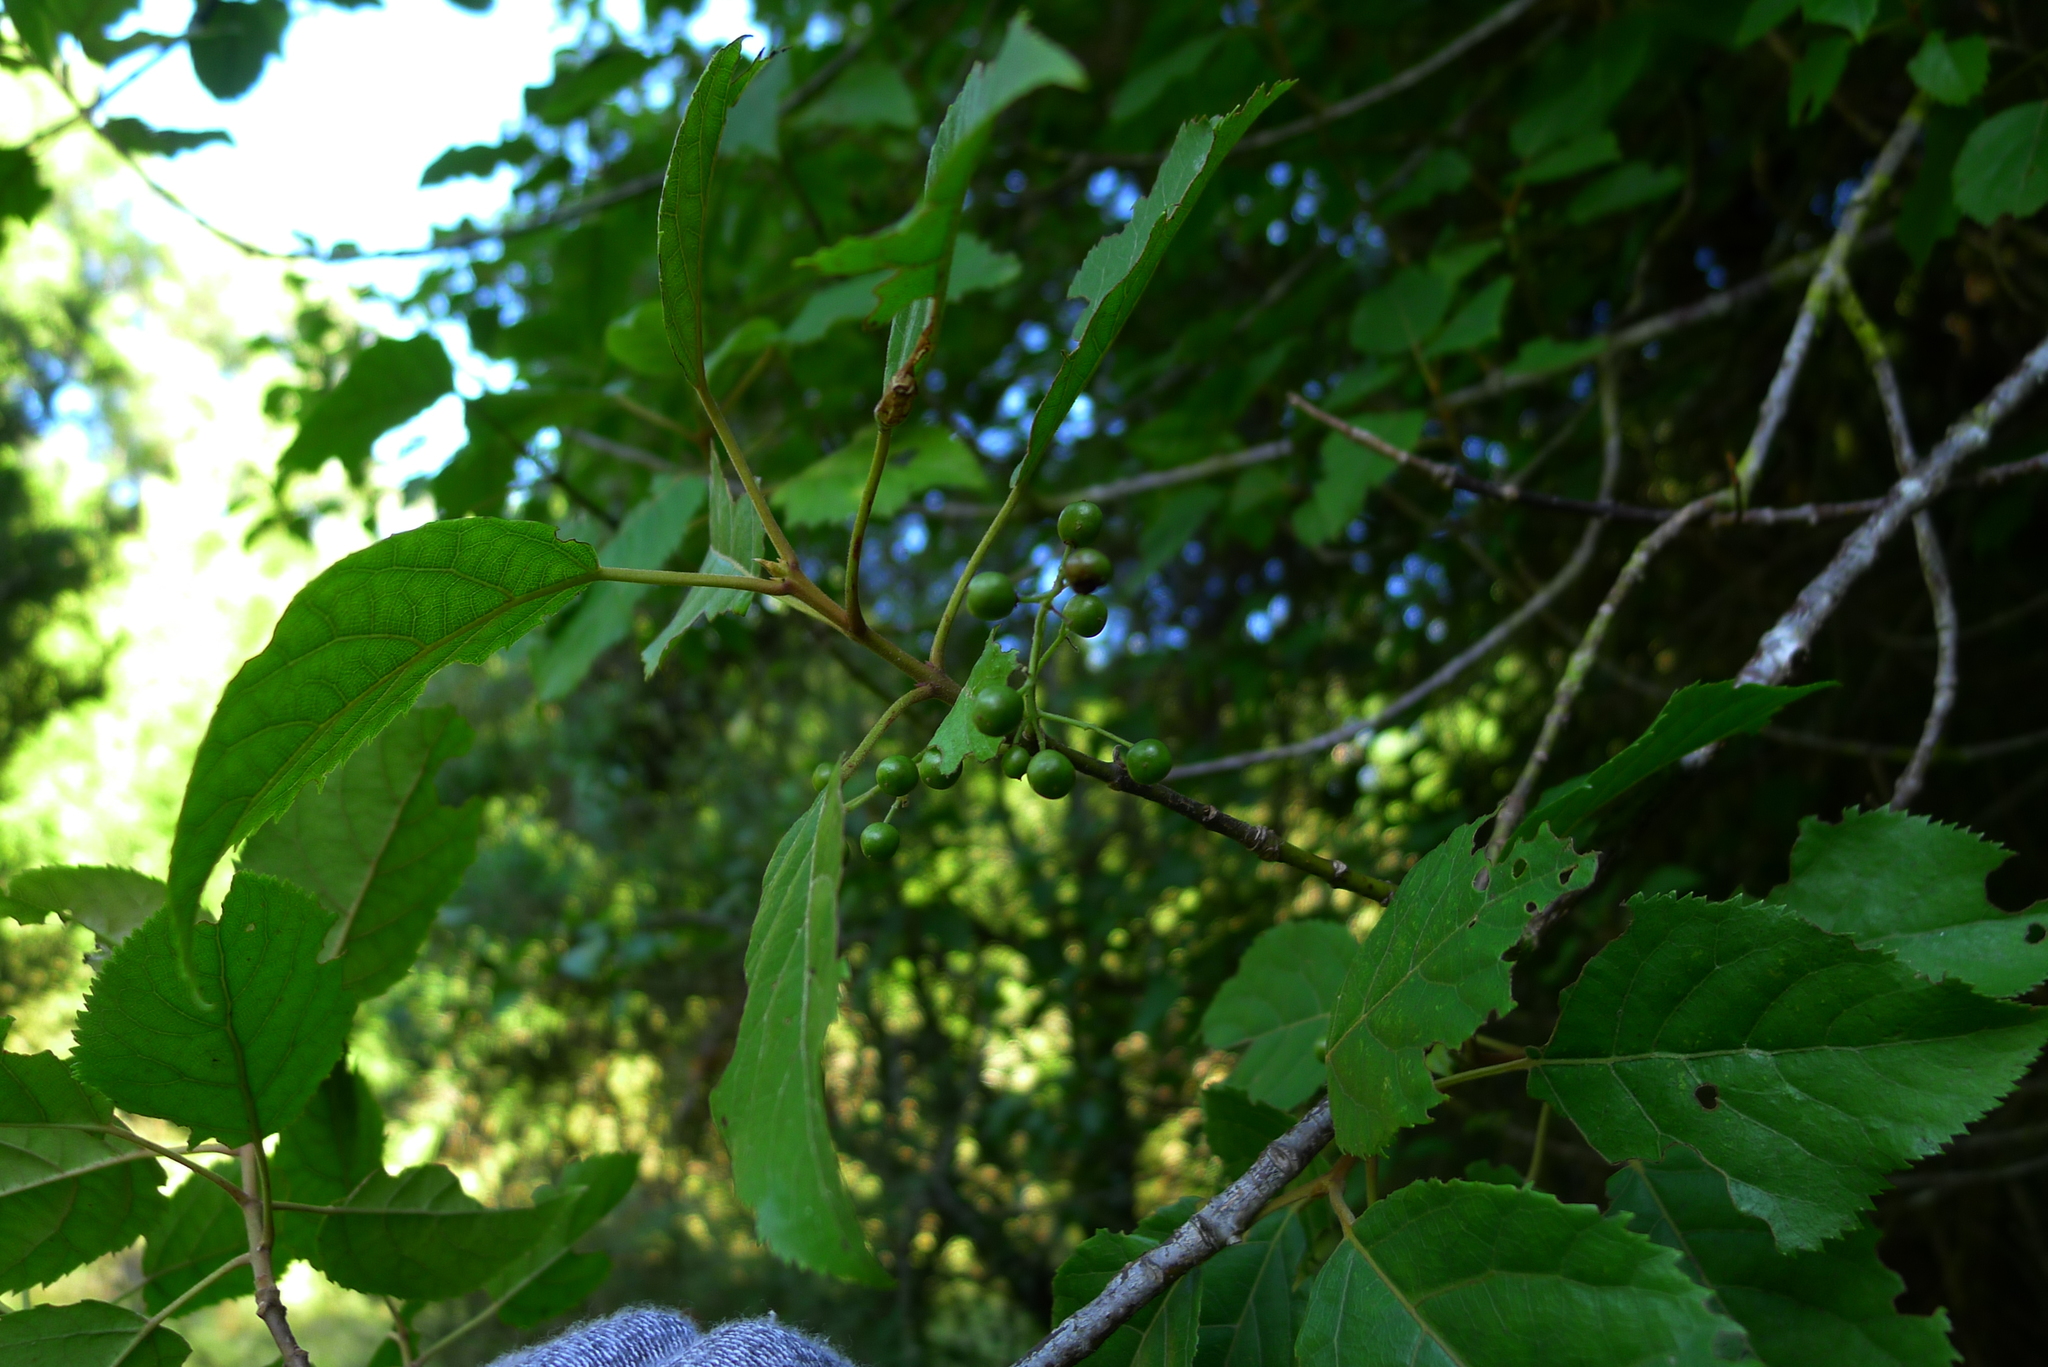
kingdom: Plantae
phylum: Tracheophyta
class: Magnoliopsida
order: Oxalidales
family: Elaeocarpaceae
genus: Aristotelia
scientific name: Aristotelia serrata
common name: New zealand wineberry
